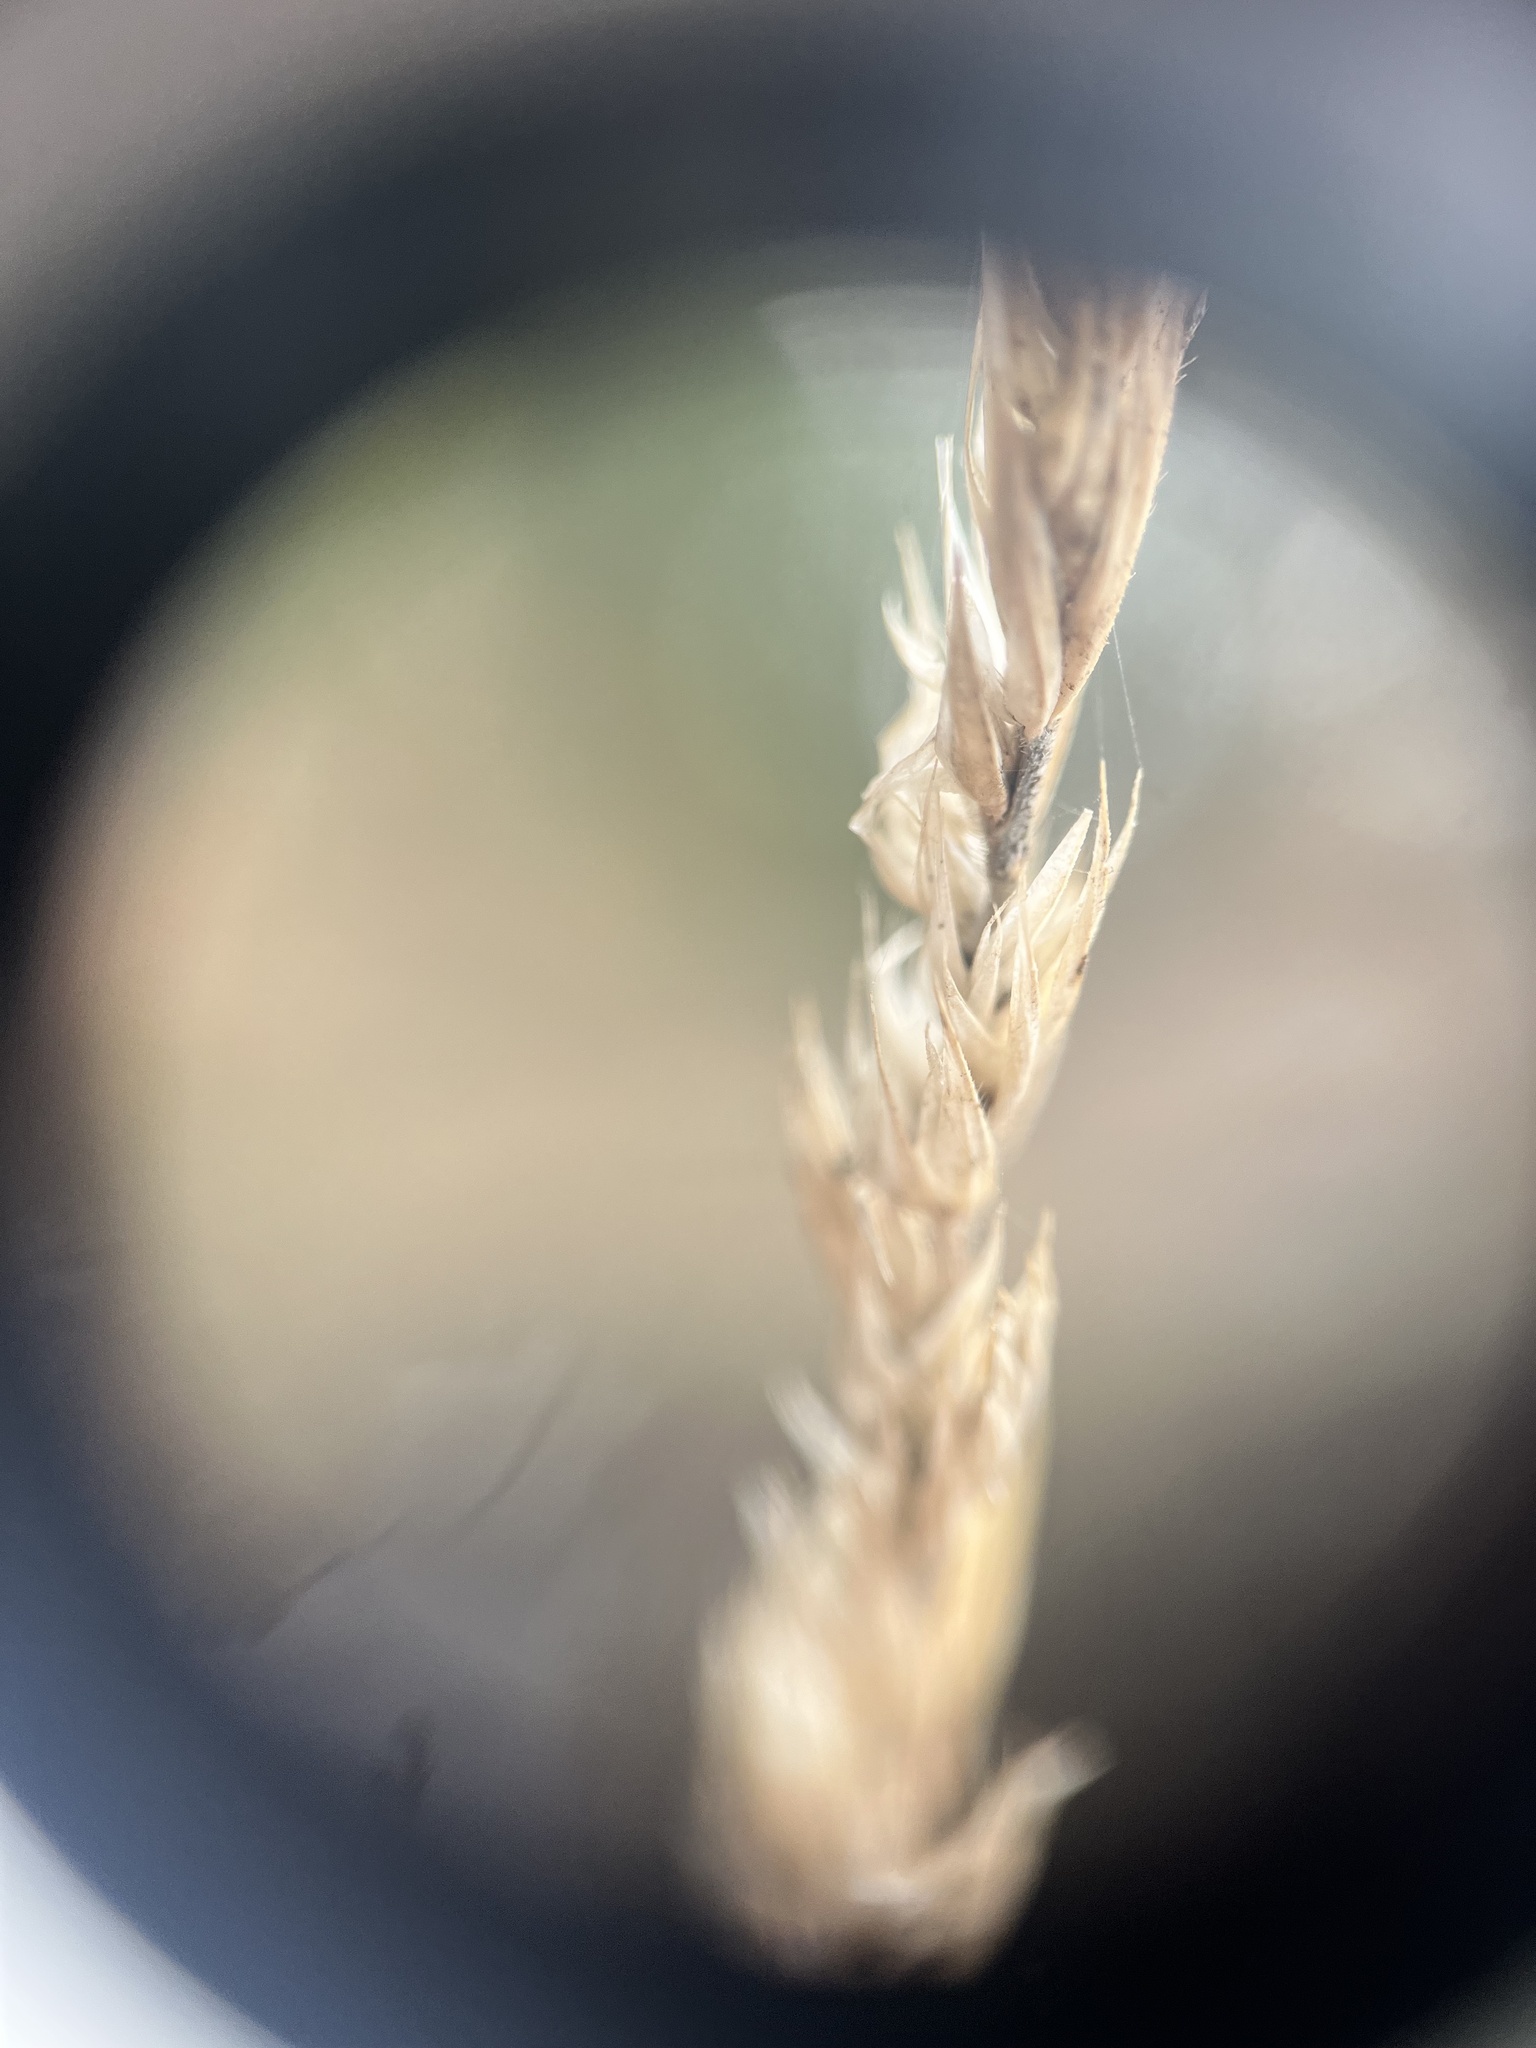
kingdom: Plantae
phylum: Tracheophyta
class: Liliopsida
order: Poales
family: Poaceae
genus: Dactylis
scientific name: Dactylis glomerata
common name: Orchardgrass
